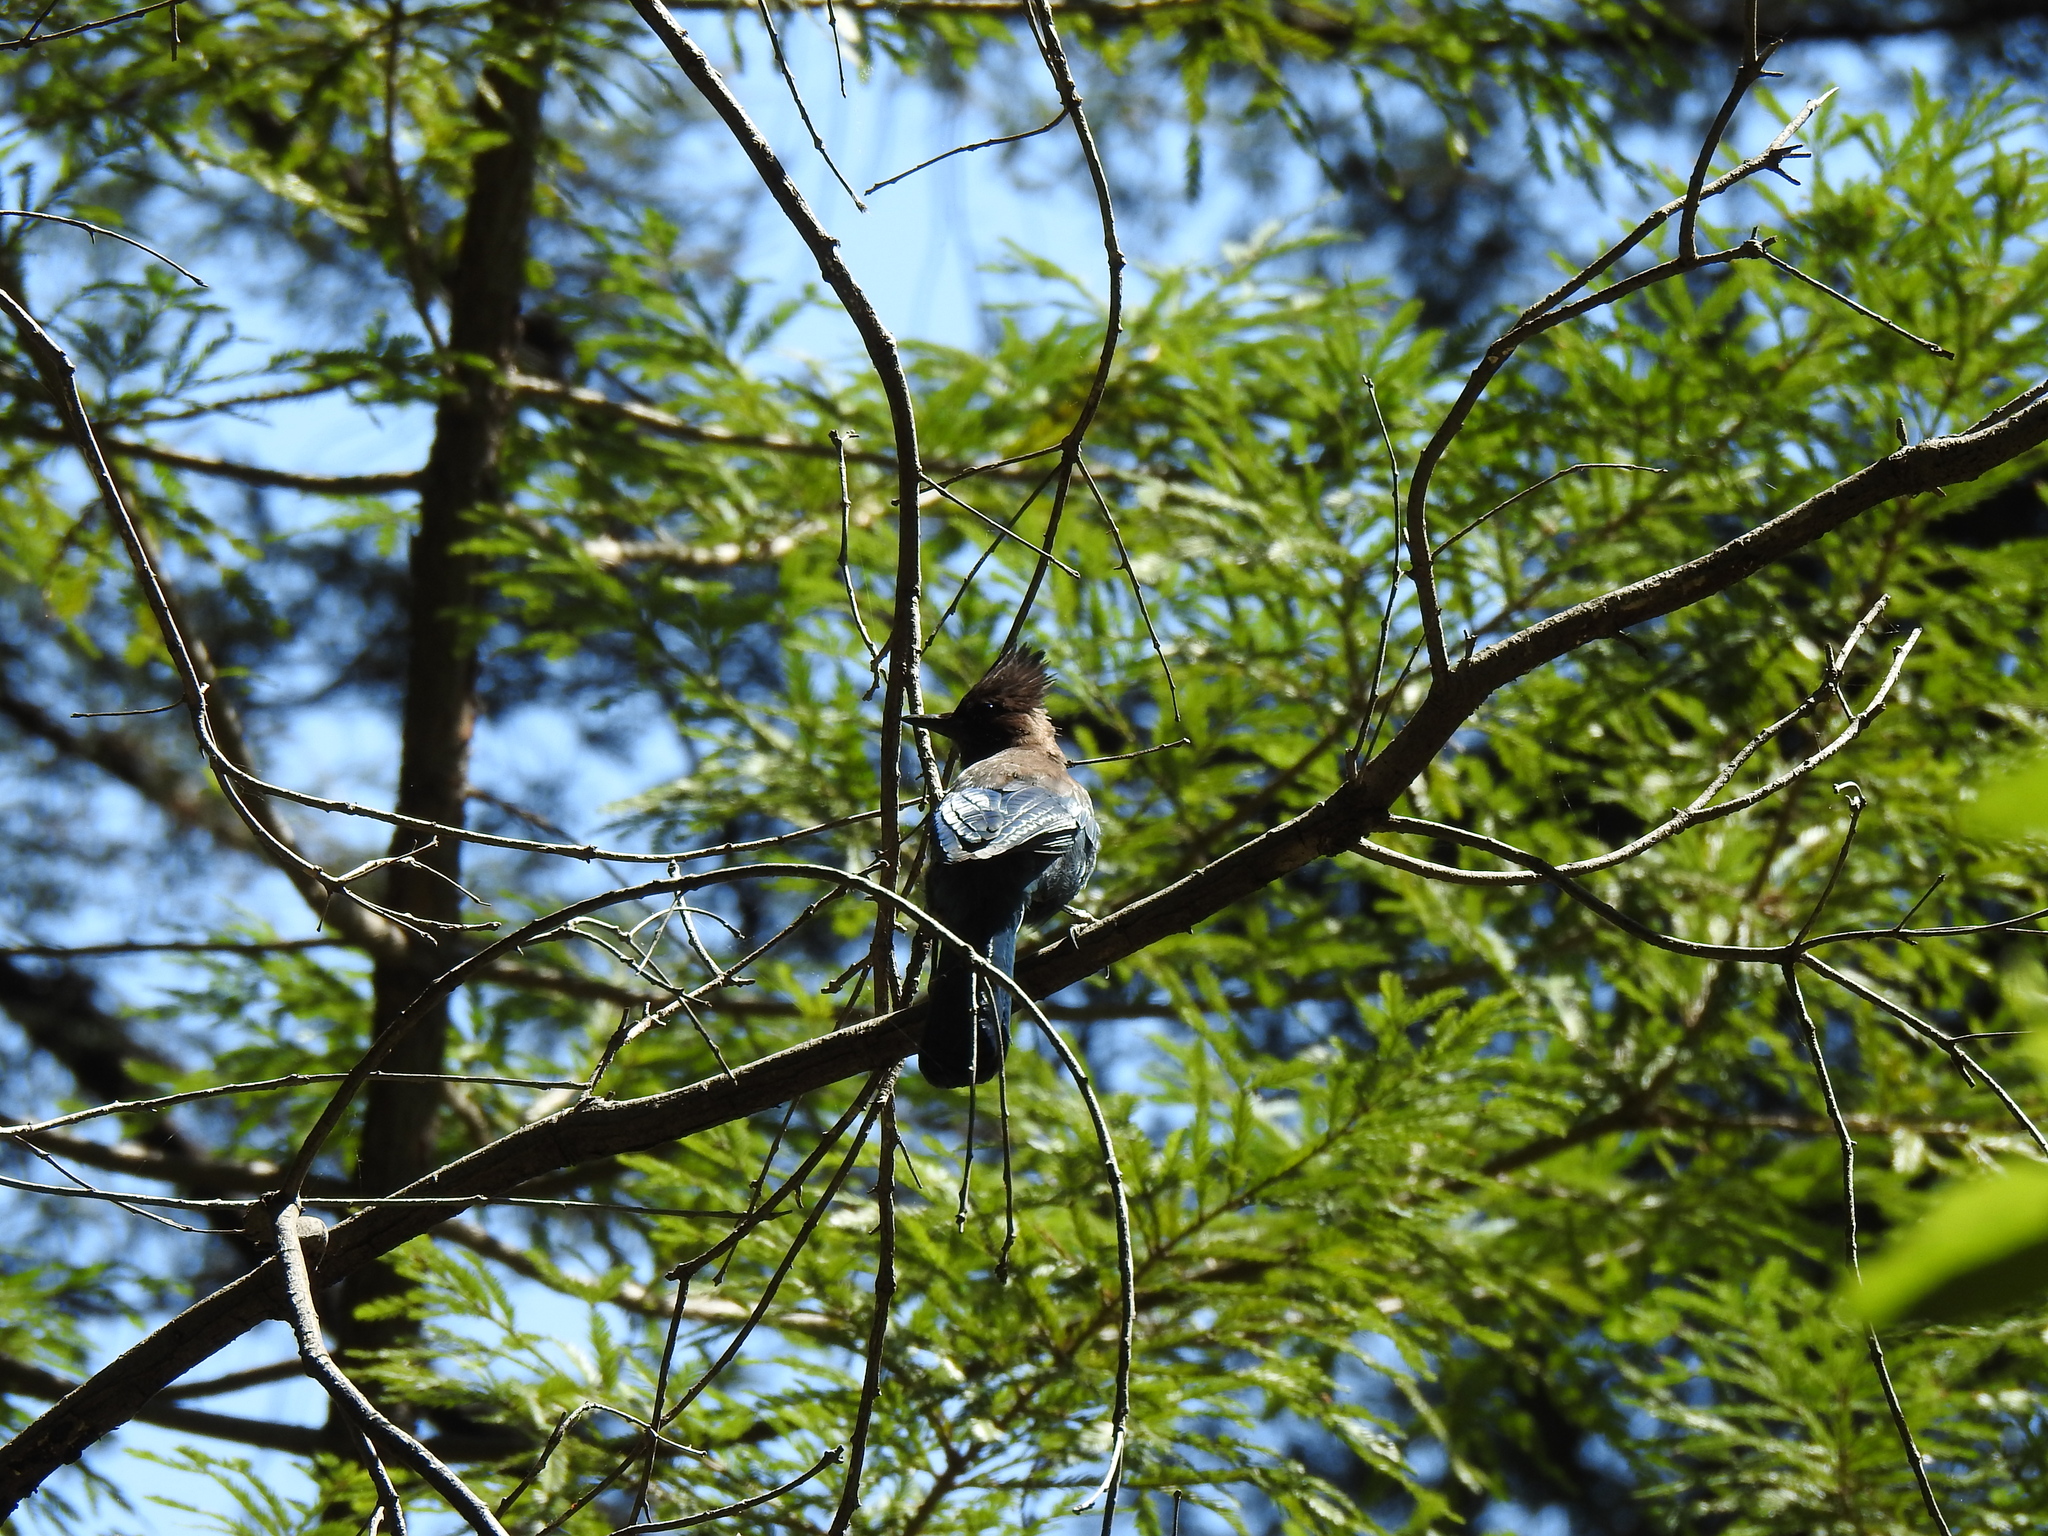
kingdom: Animalia
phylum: Chordata
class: Aves
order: Passeriformes
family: Corvidae
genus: Cyanocitta
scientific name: Cyanocitta stelleri
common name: Steller's jay
